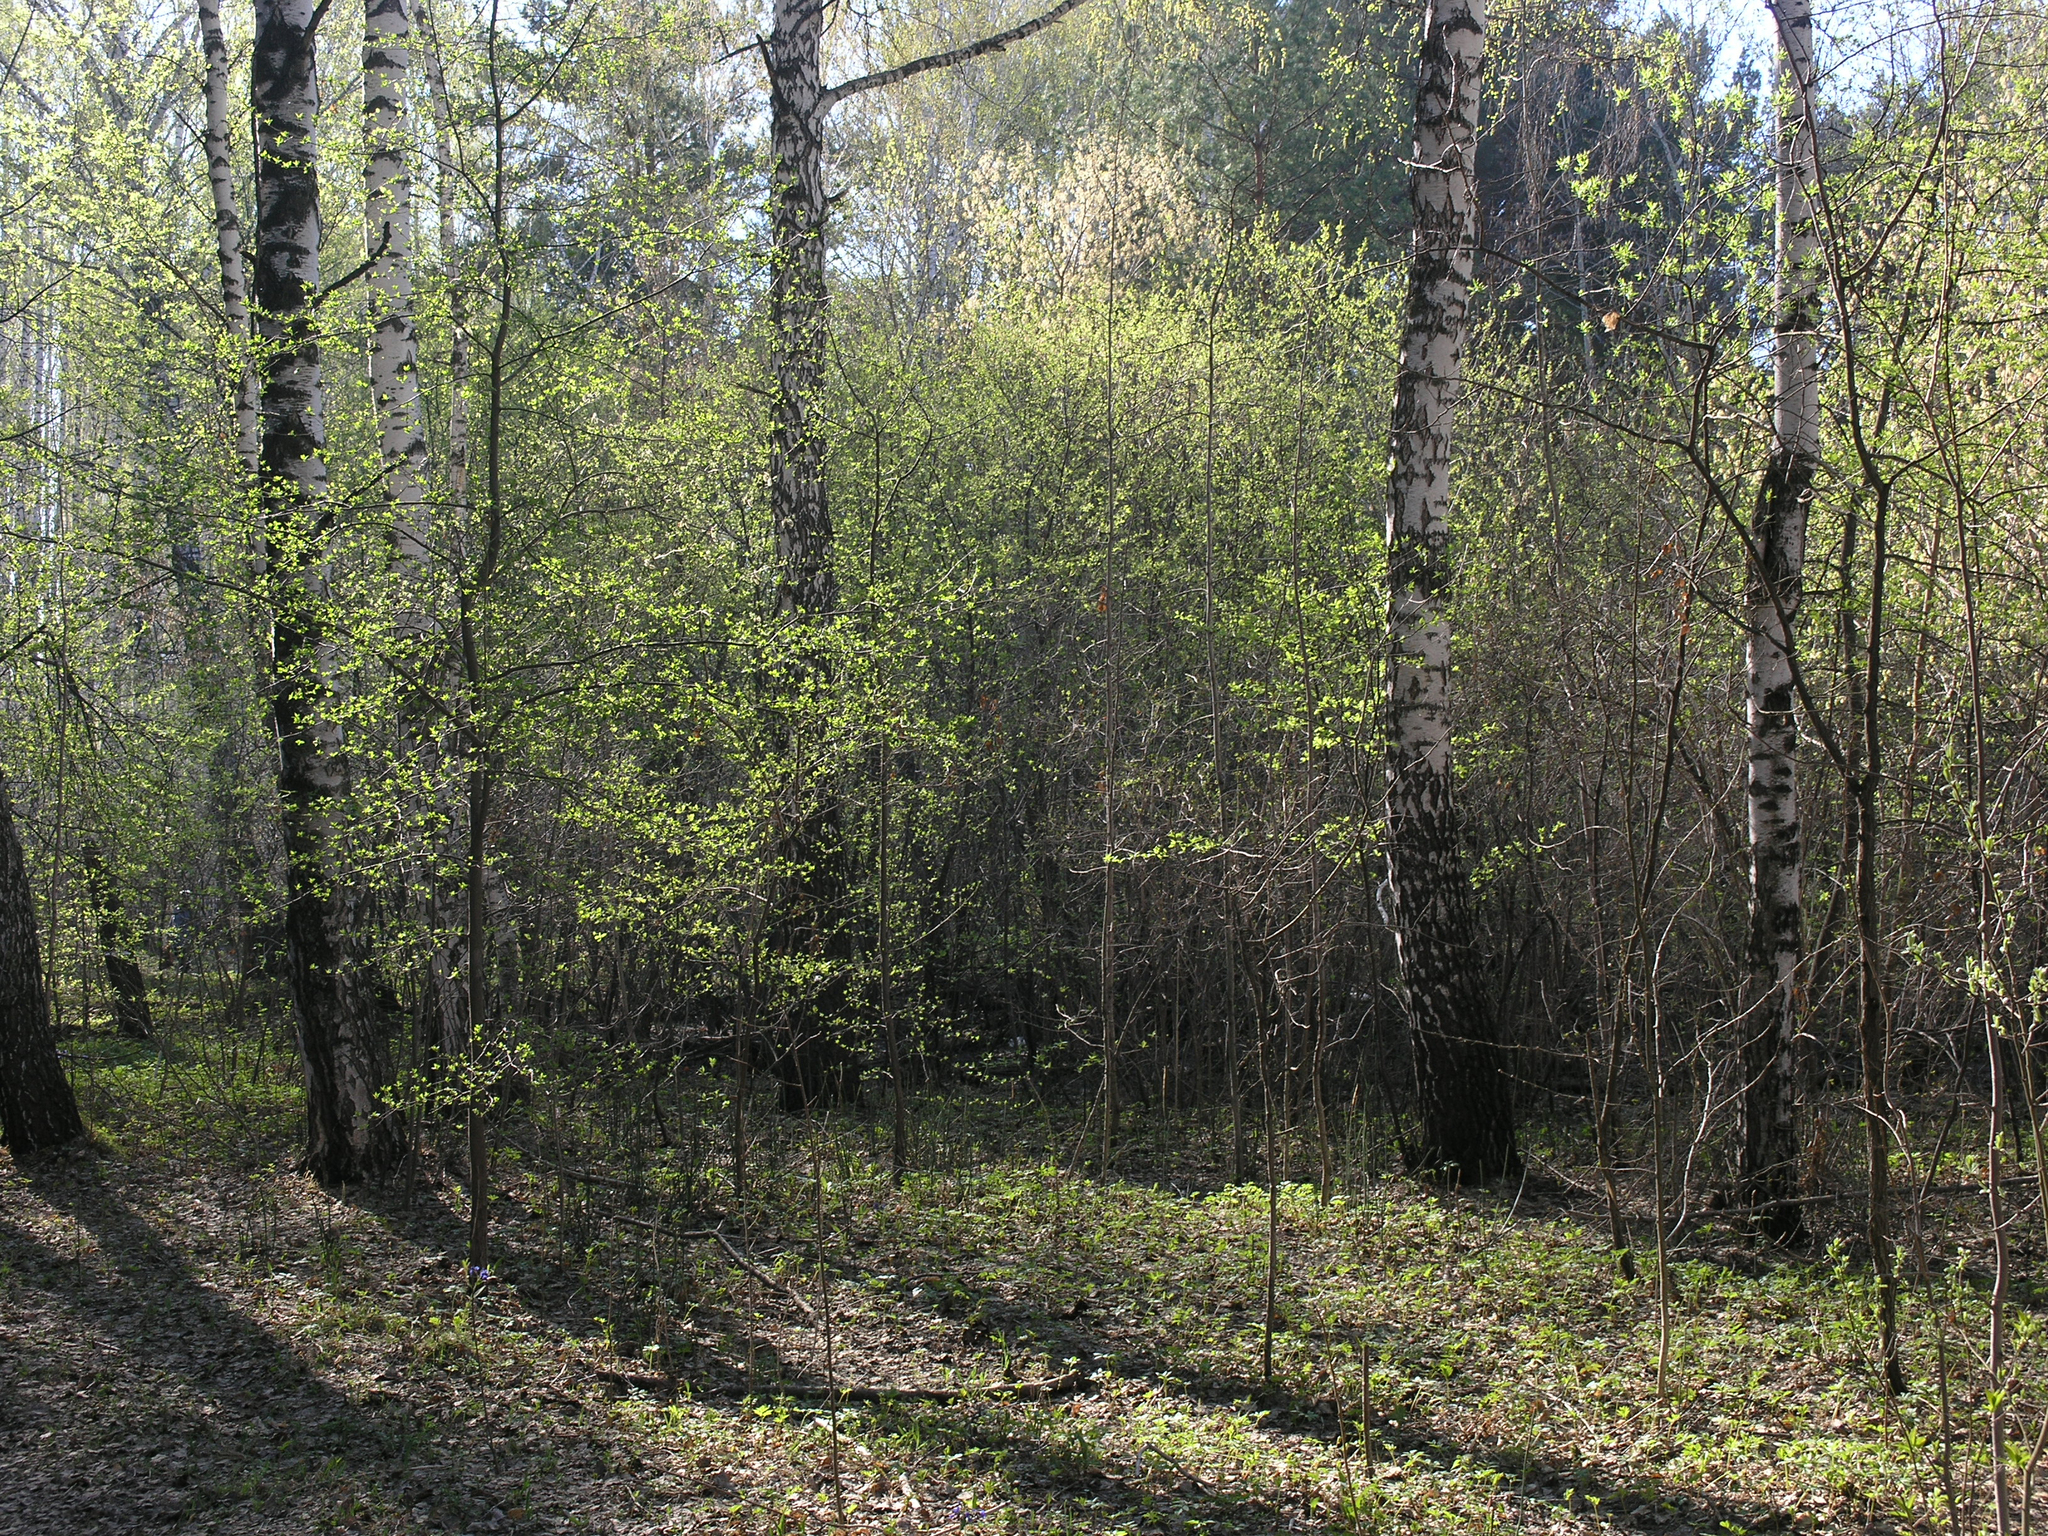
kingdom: Plantae
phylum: Tracheophyta
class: Magnoliopsida
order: Rosales
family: Rosaceae
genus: Prunus
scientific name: Prunus padus
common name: Bird cherry
